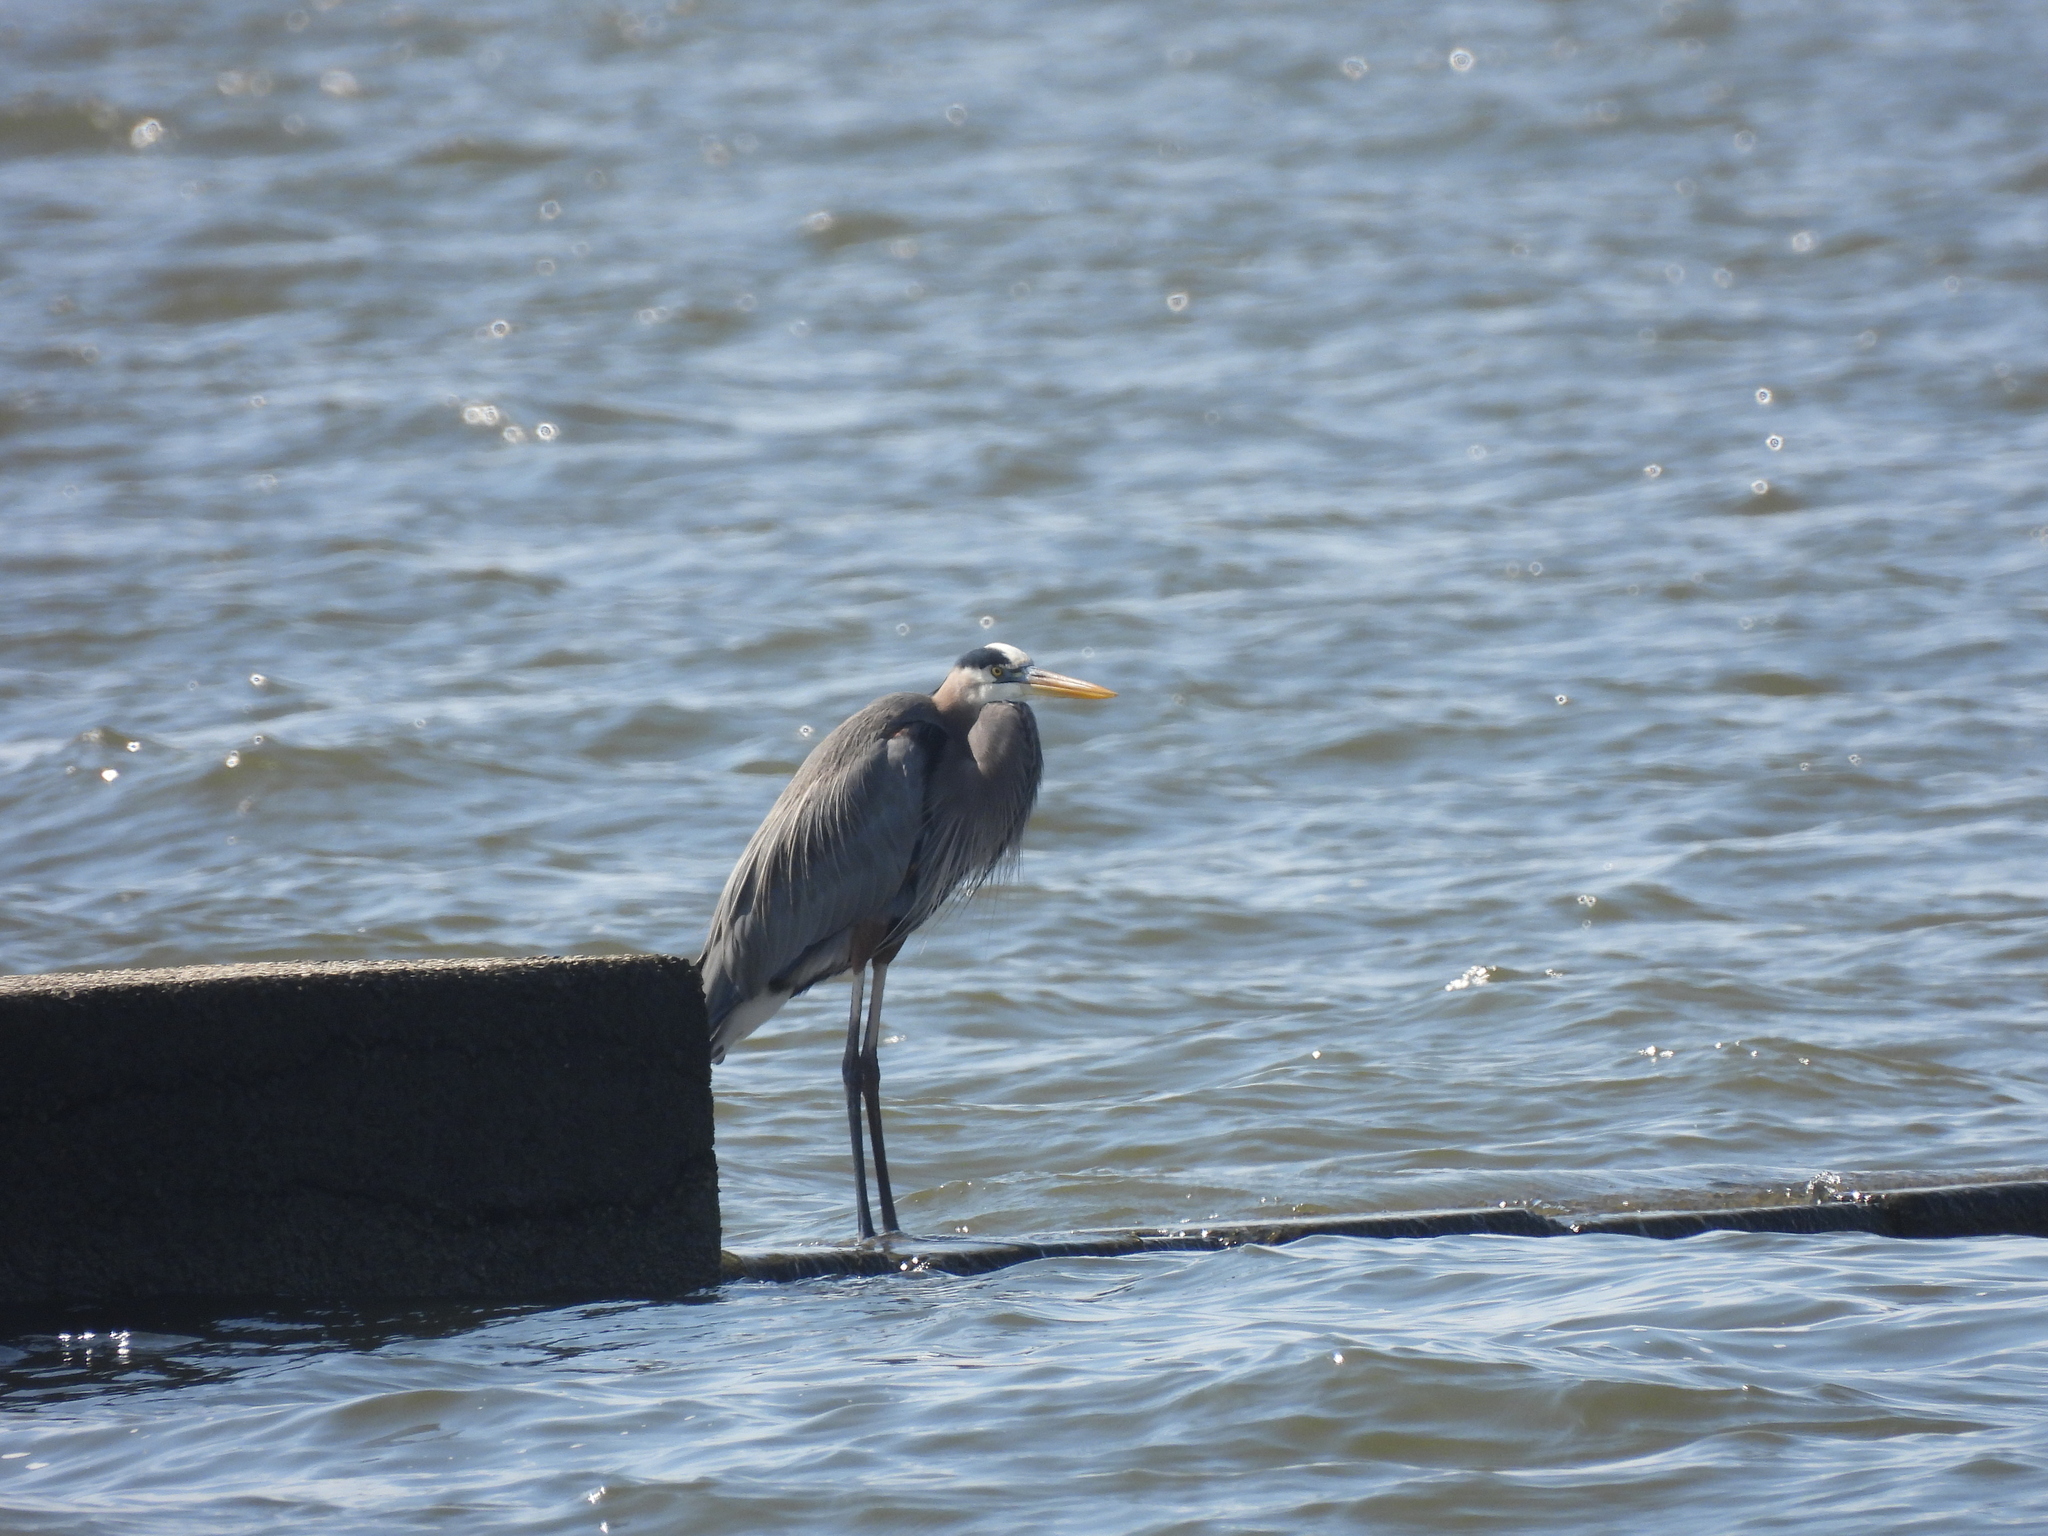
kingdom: Animalia
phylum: Chordata
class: Aves
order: Pelecaniformes
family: Ardeidae
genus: Ardea
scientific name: Ardea herodias
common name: Great blue heron
